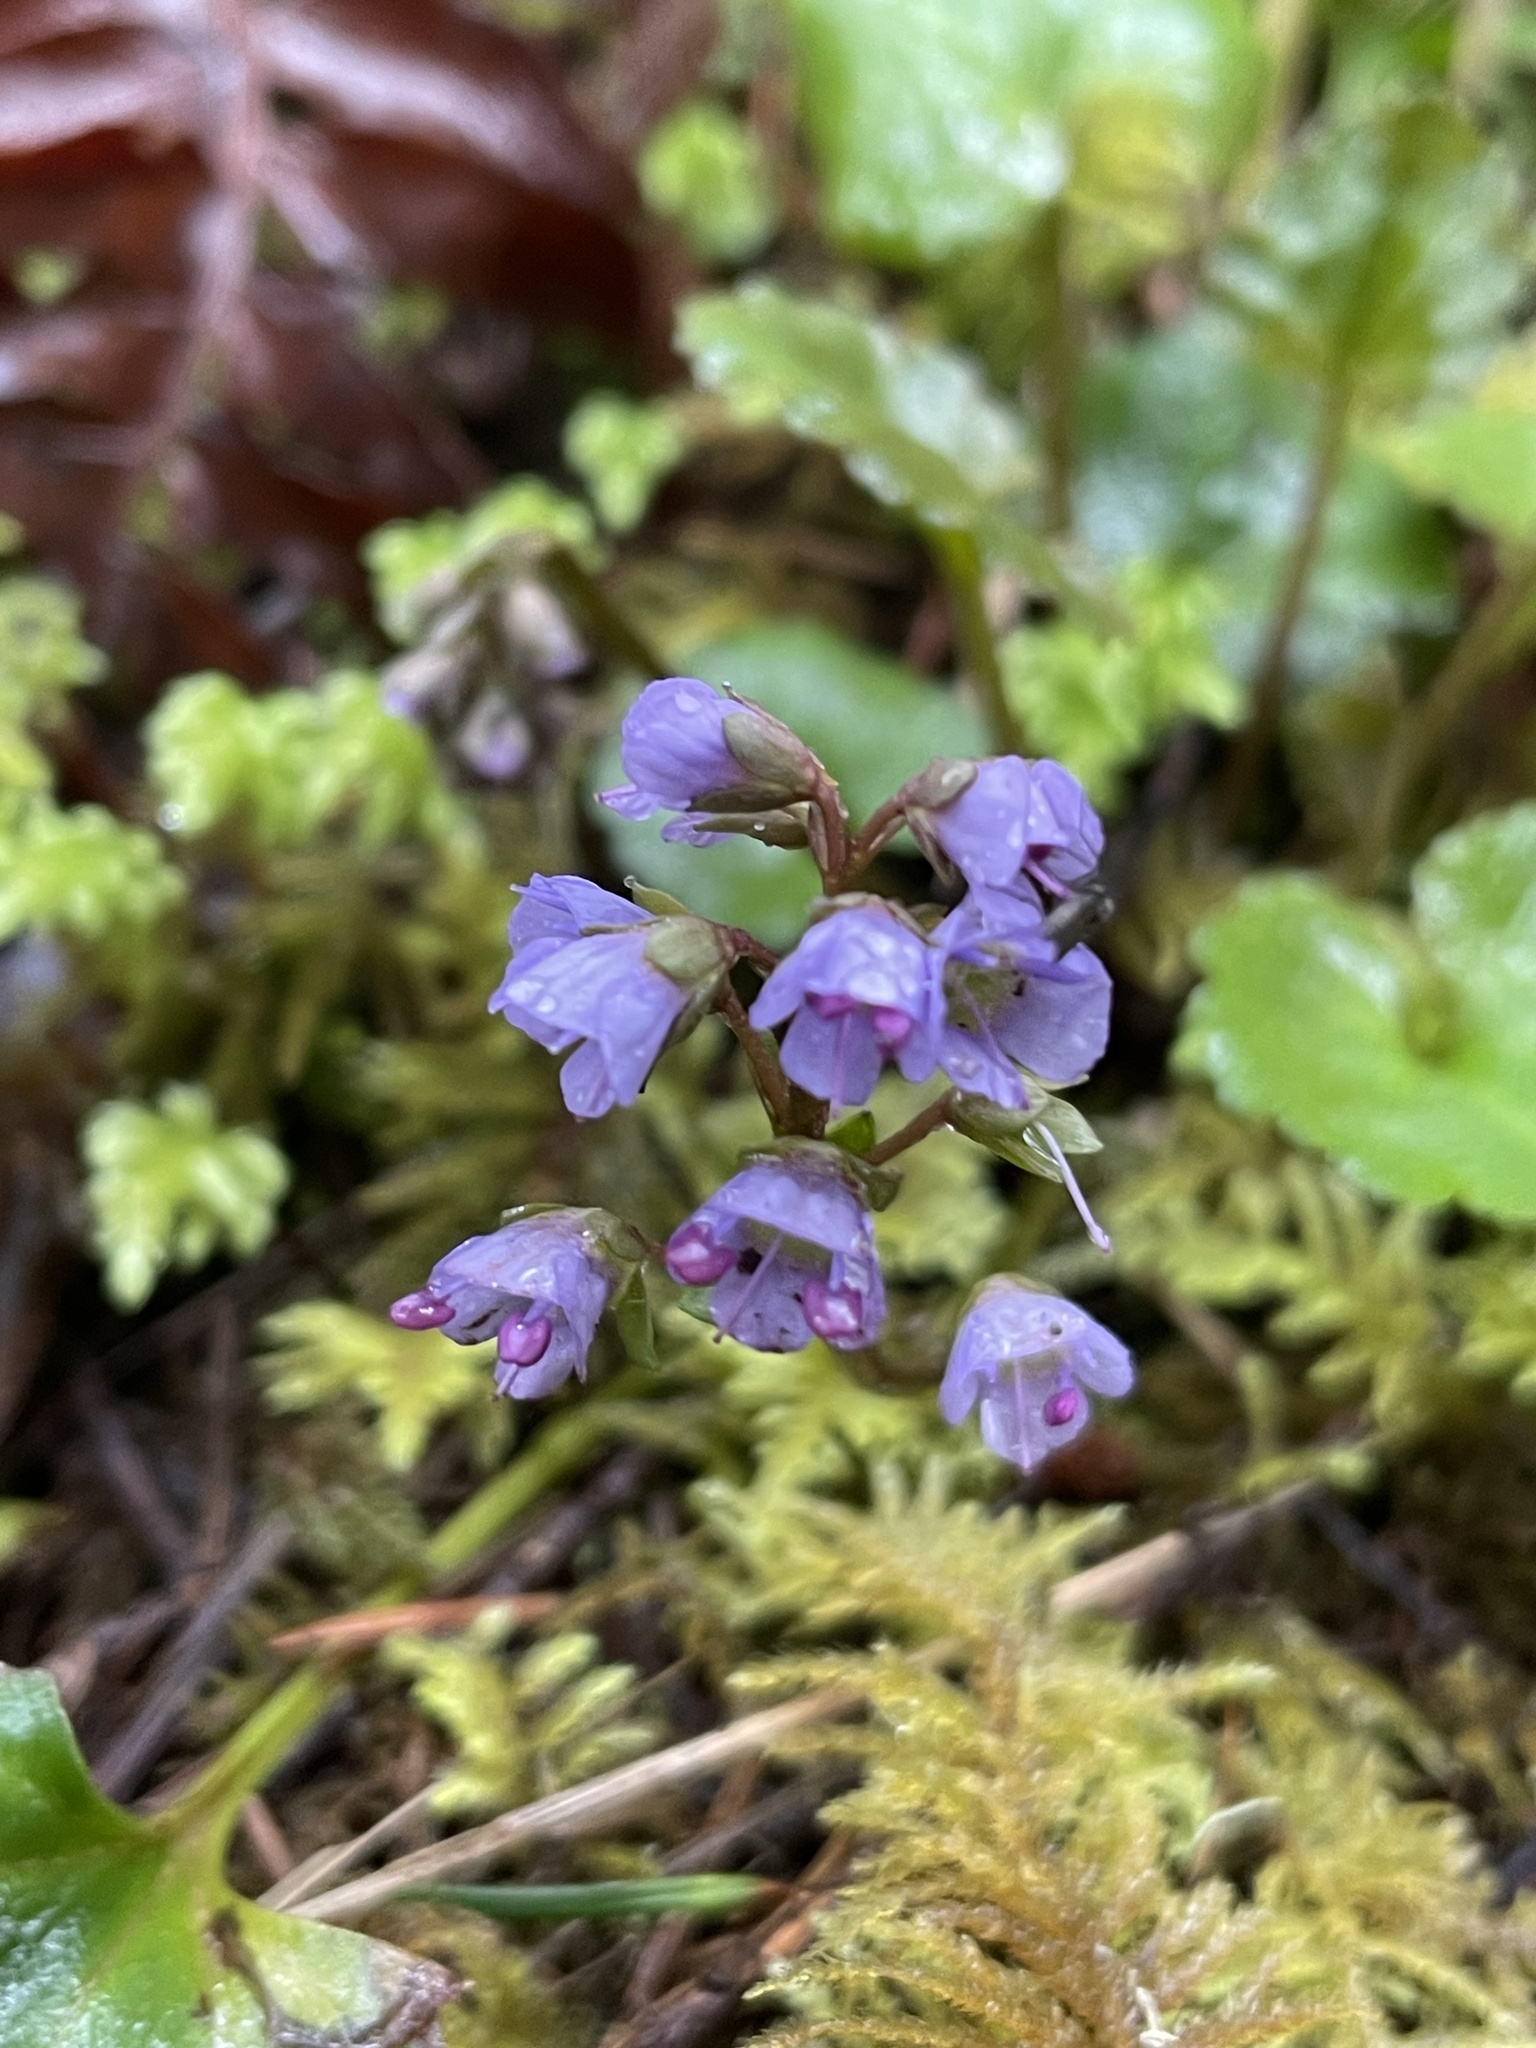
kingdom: Plantae
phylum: Tracheophyta
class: Magnoliopsida
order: Lamiales
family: Plantaginaceae
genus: Synthyris
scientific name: Synthyris reniformis
